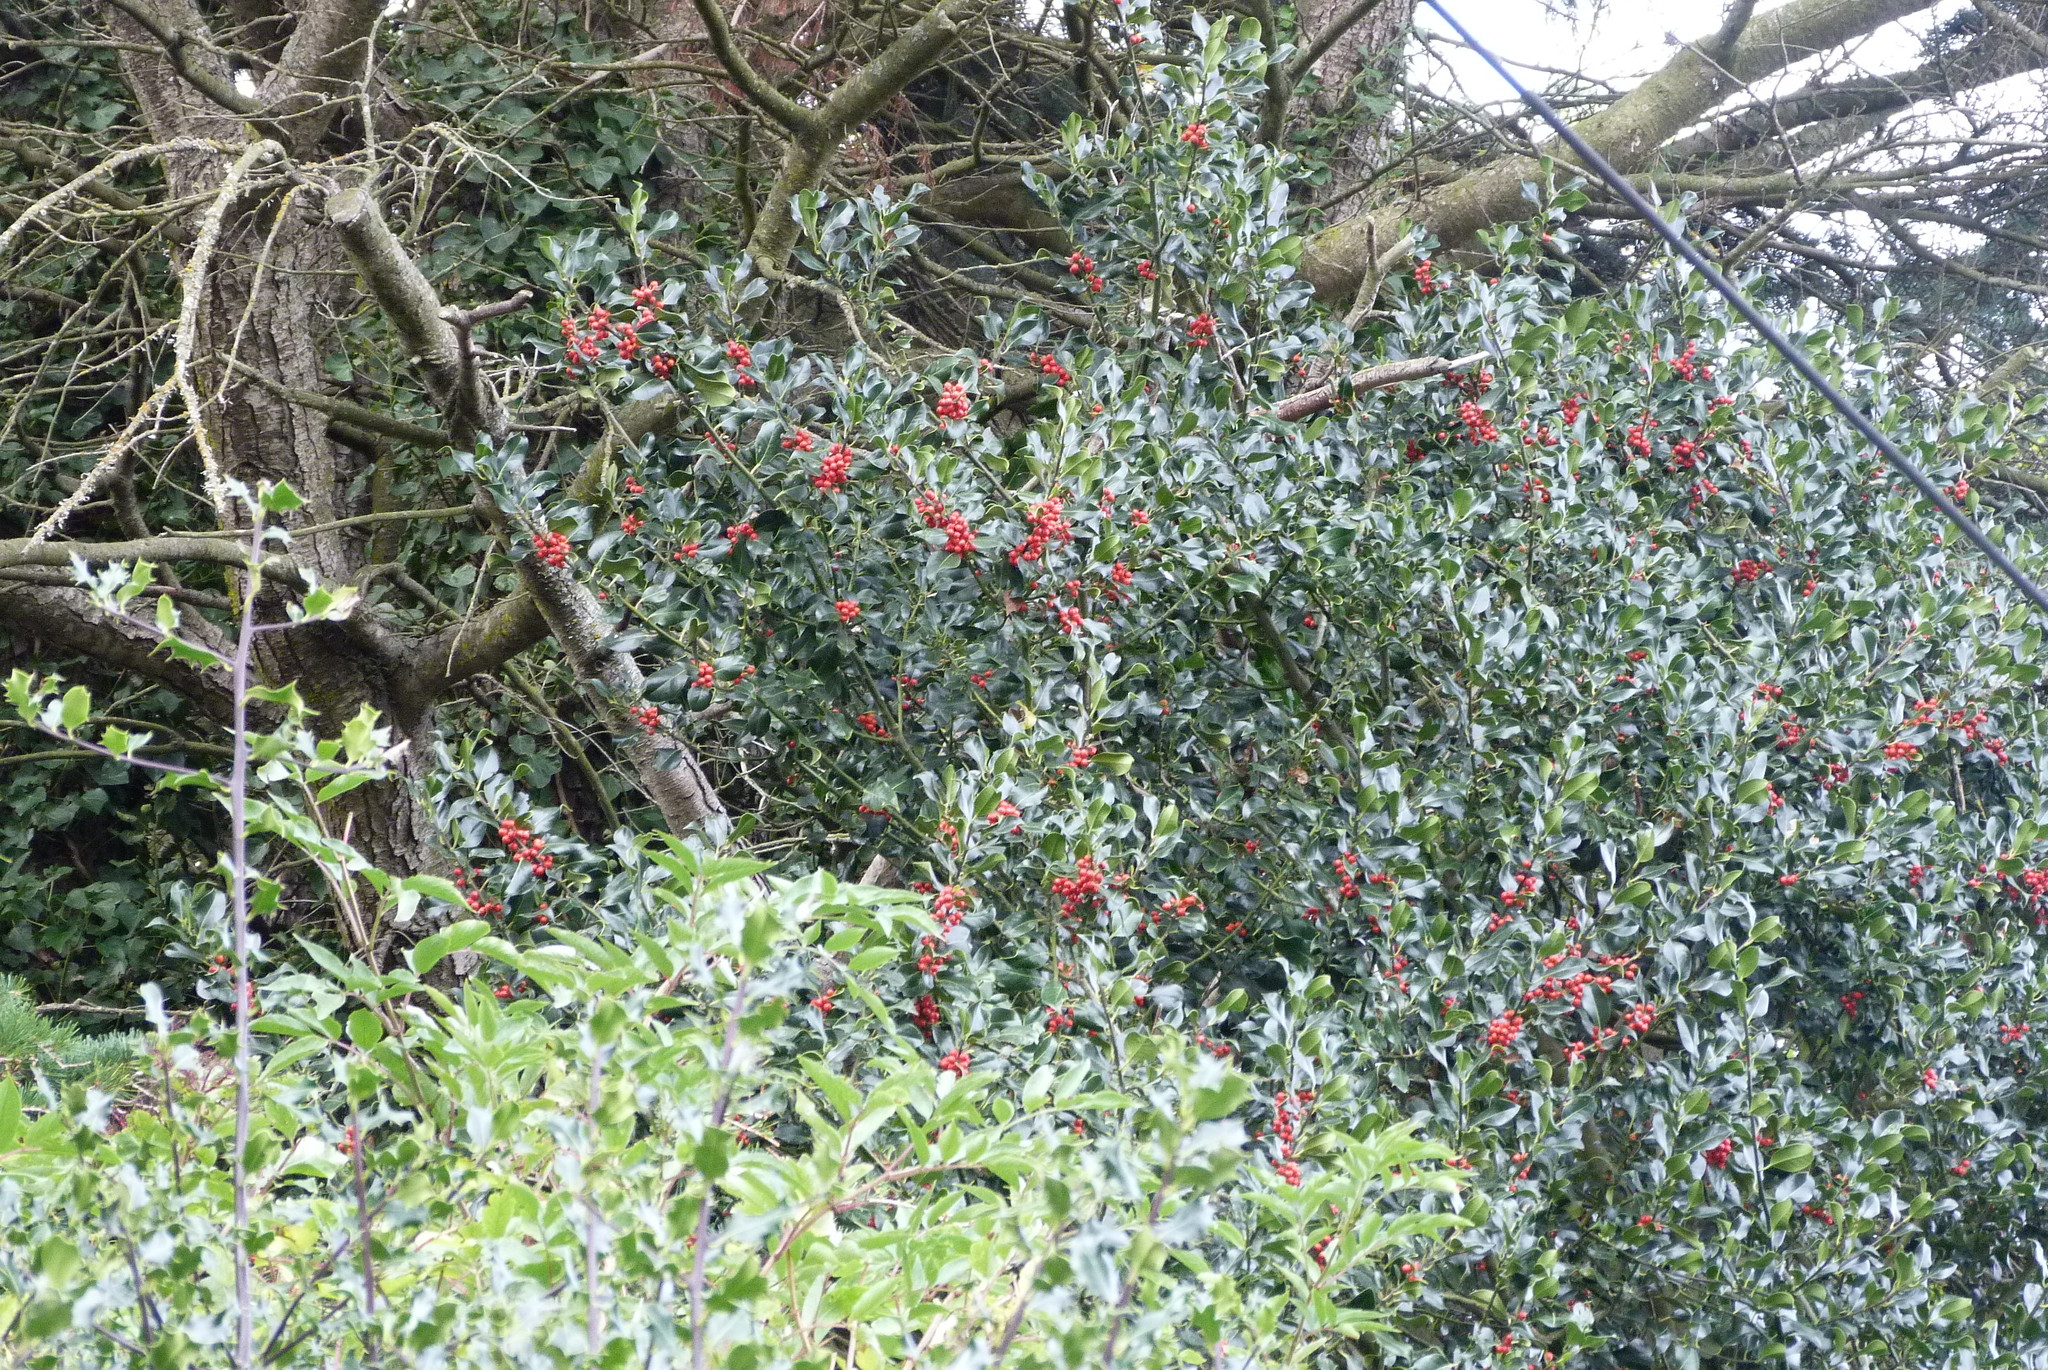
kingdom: Plantae
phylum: Tracheophyta
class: Magnoliopsida
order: Aquifoliales
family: Aquifoliaceae
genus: Ilex
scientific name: Ilex aquifolium
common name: English holly
